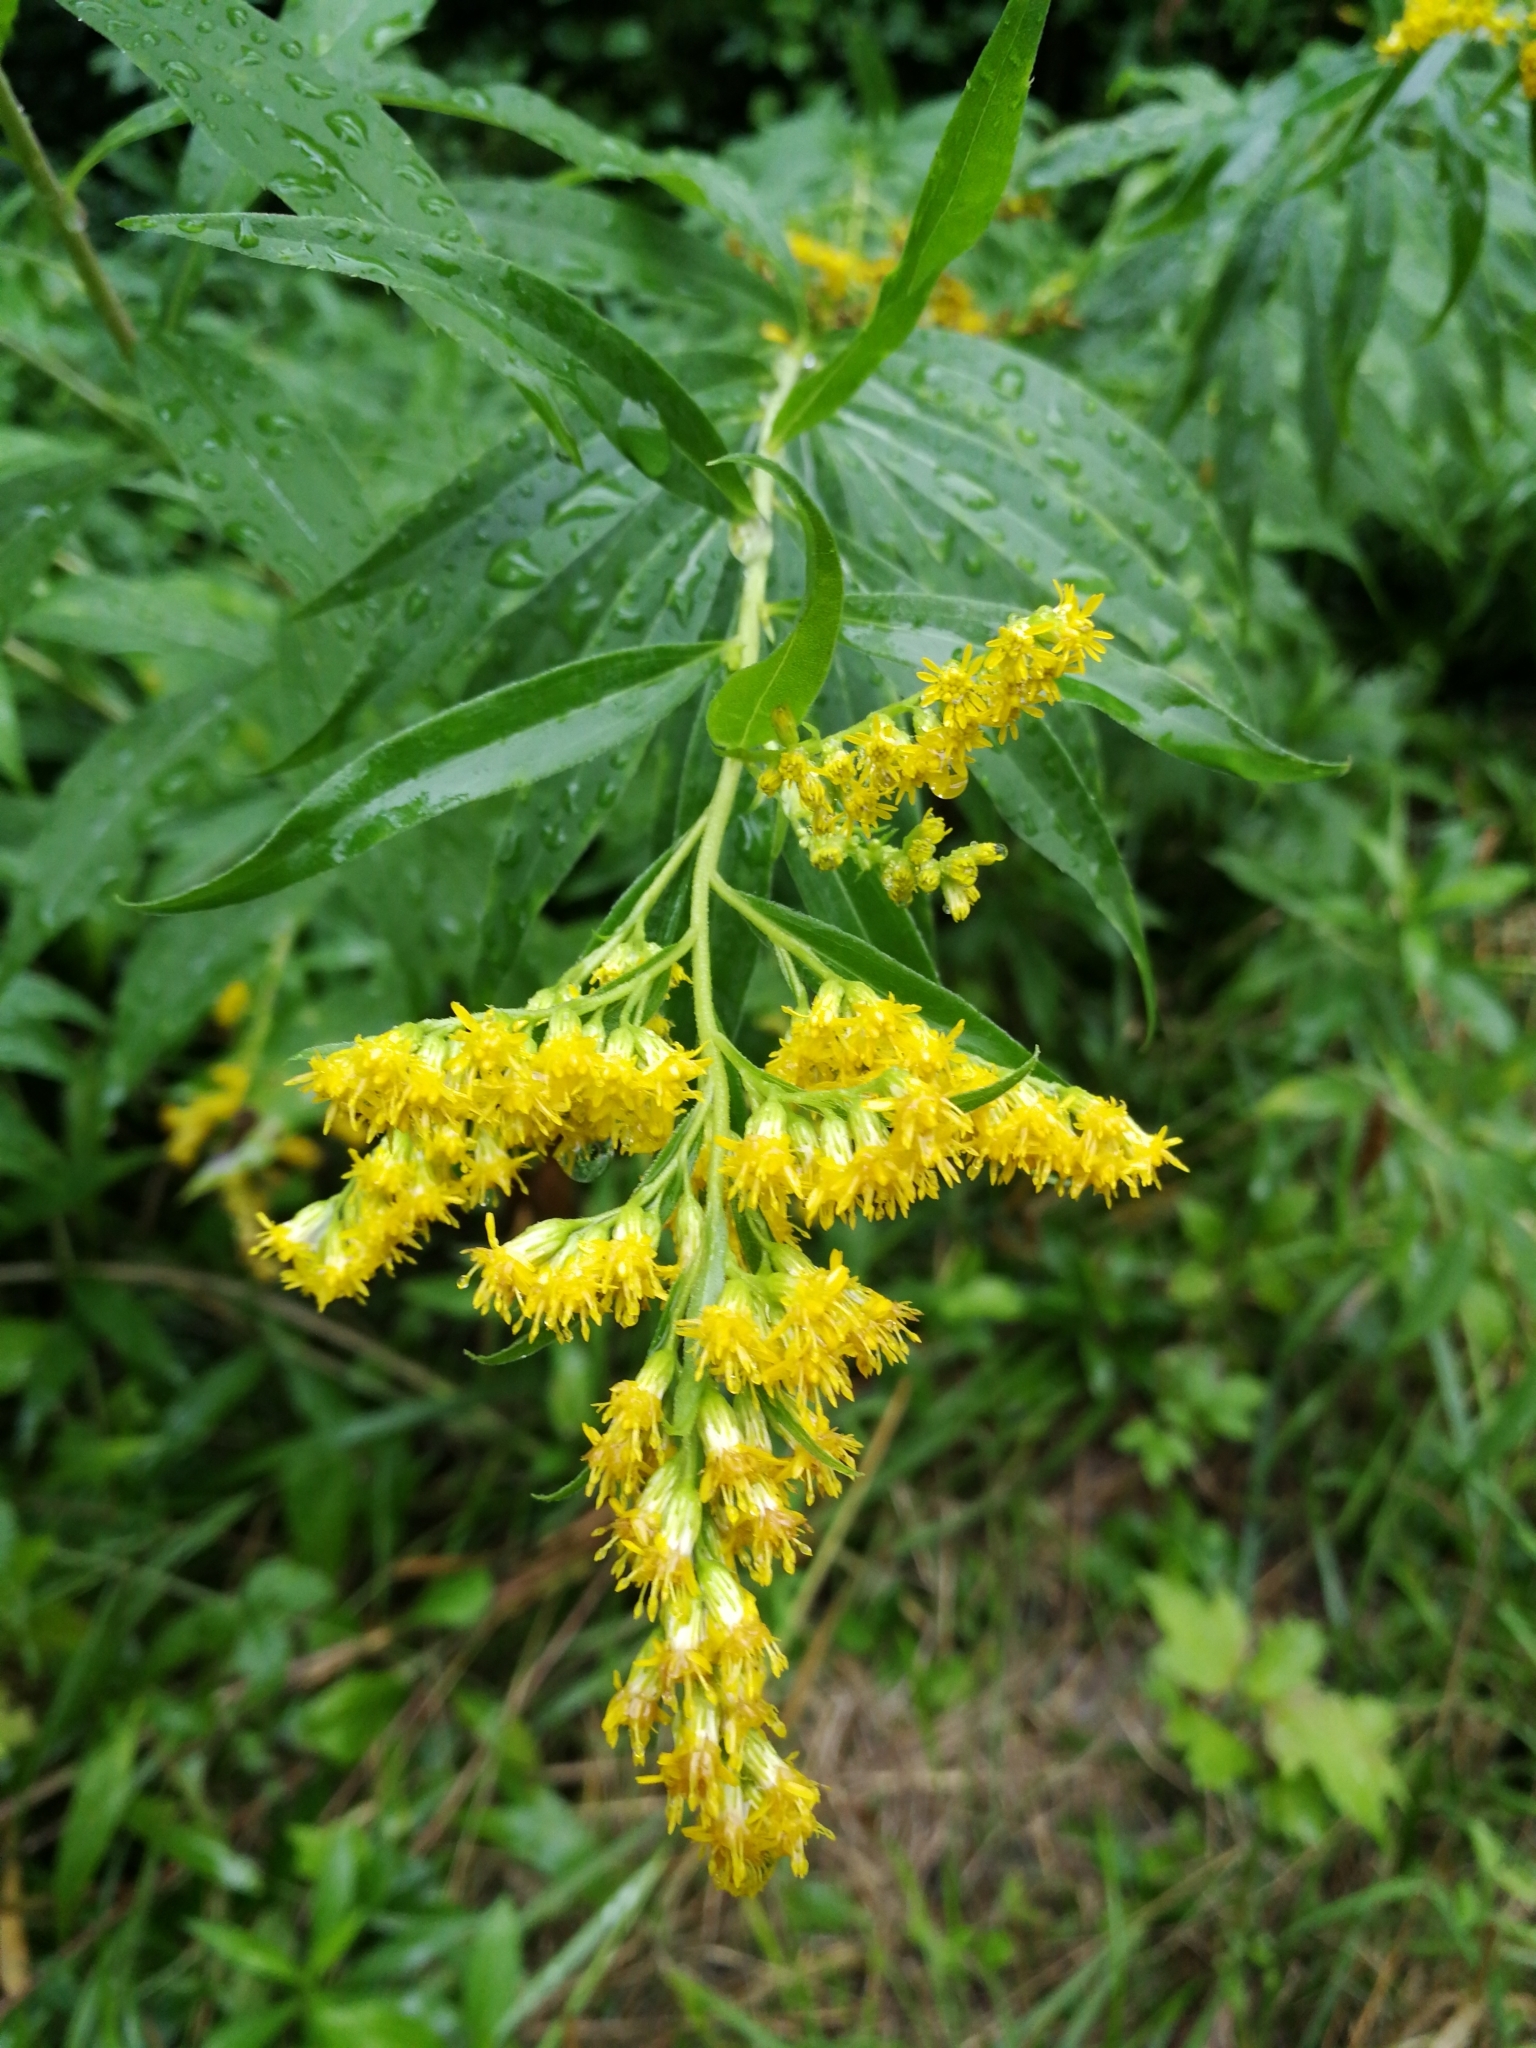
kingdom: Plantae
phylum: Tracheophyta
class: Magnoliopsida
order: Asterales
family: Asteraceae
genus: Solidago
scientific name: Solidago gigantea
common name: Giant goldenrod
